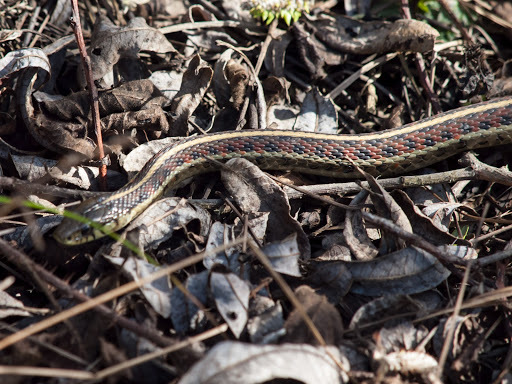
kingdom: Animalia
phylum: Chordata
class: Squamata
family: Colubridae
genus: Thamnophis
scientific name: Thamnophis elegans
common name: Western terrestrial garter snake
